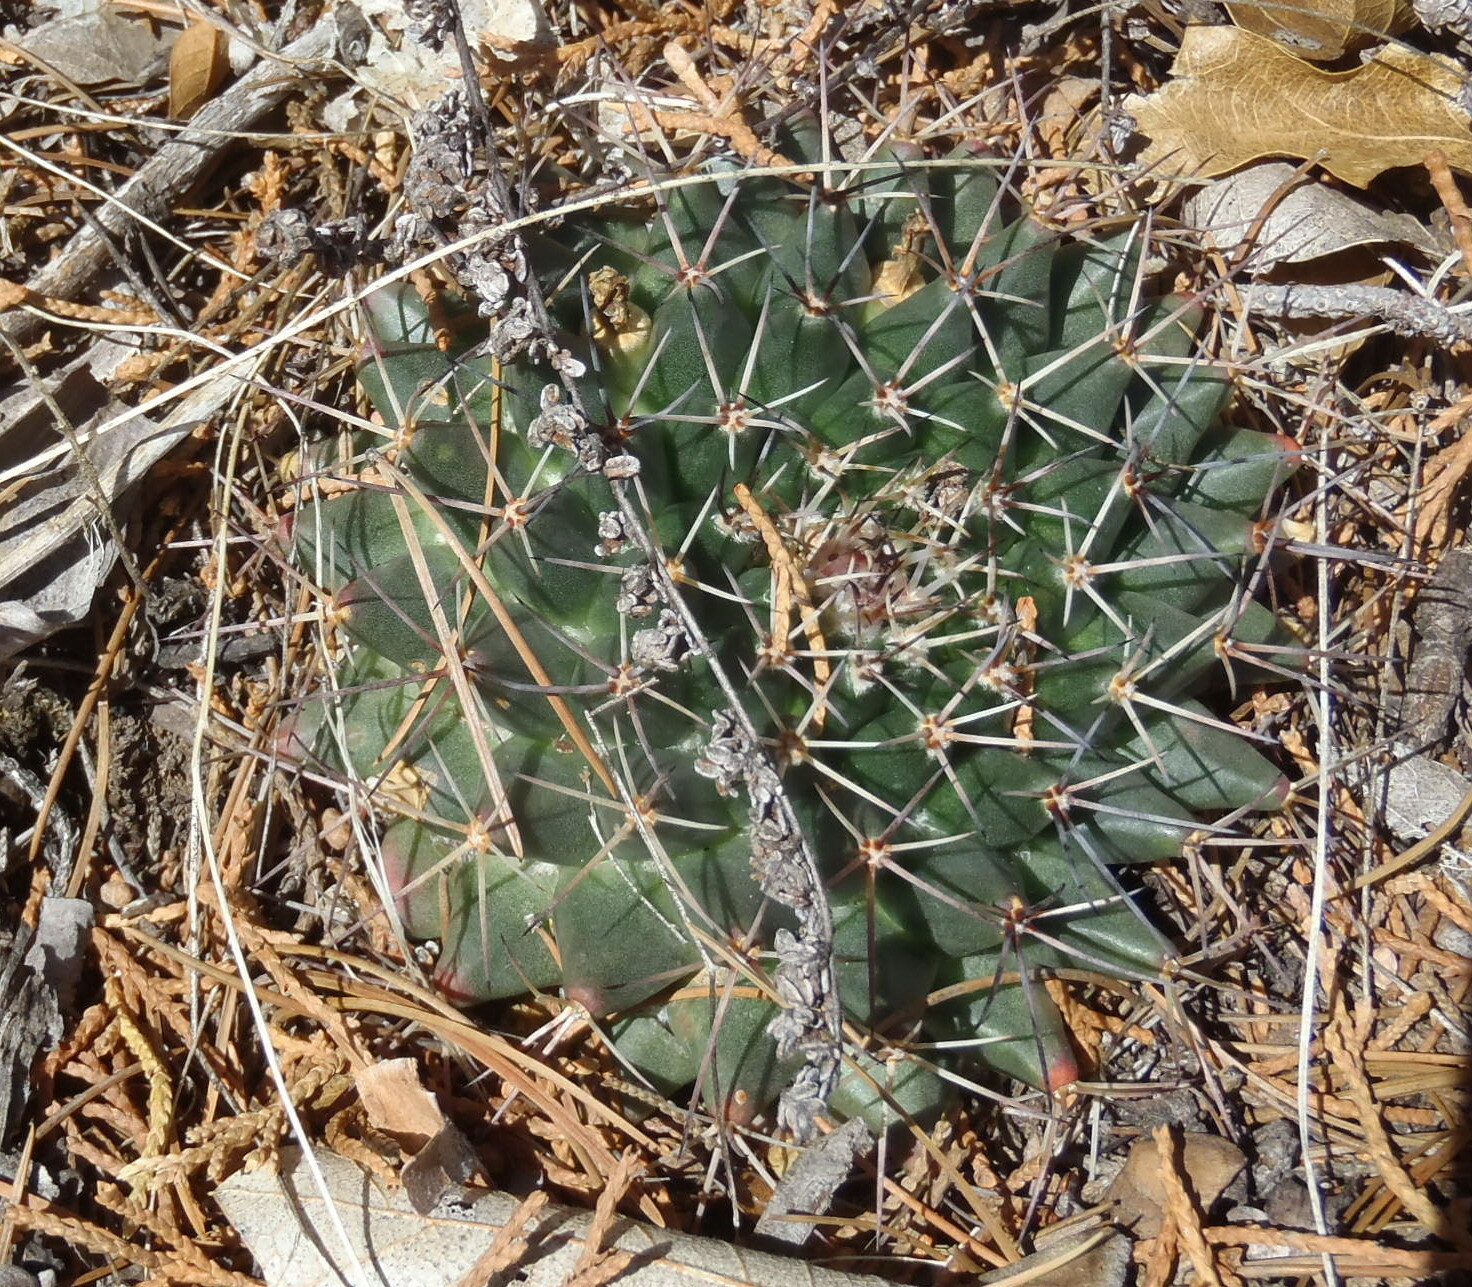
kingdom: Plantae
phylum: Tracheophyta
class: Magnoliopsida
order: Caryophyllales
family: Cactaceae
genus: Mammillaria
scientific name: Mammillaria heyderi
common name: Little nipple cactus
